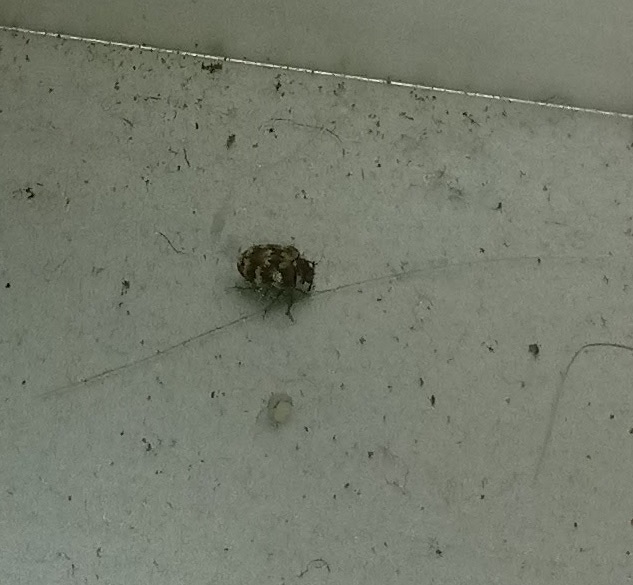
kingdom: Animalia
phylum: Arthropoda
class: Insecta
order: Coleoptera
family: Dermestidae
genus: Anthrenus
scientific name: Anthrenus verbasci
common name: Varied carpet beetle
